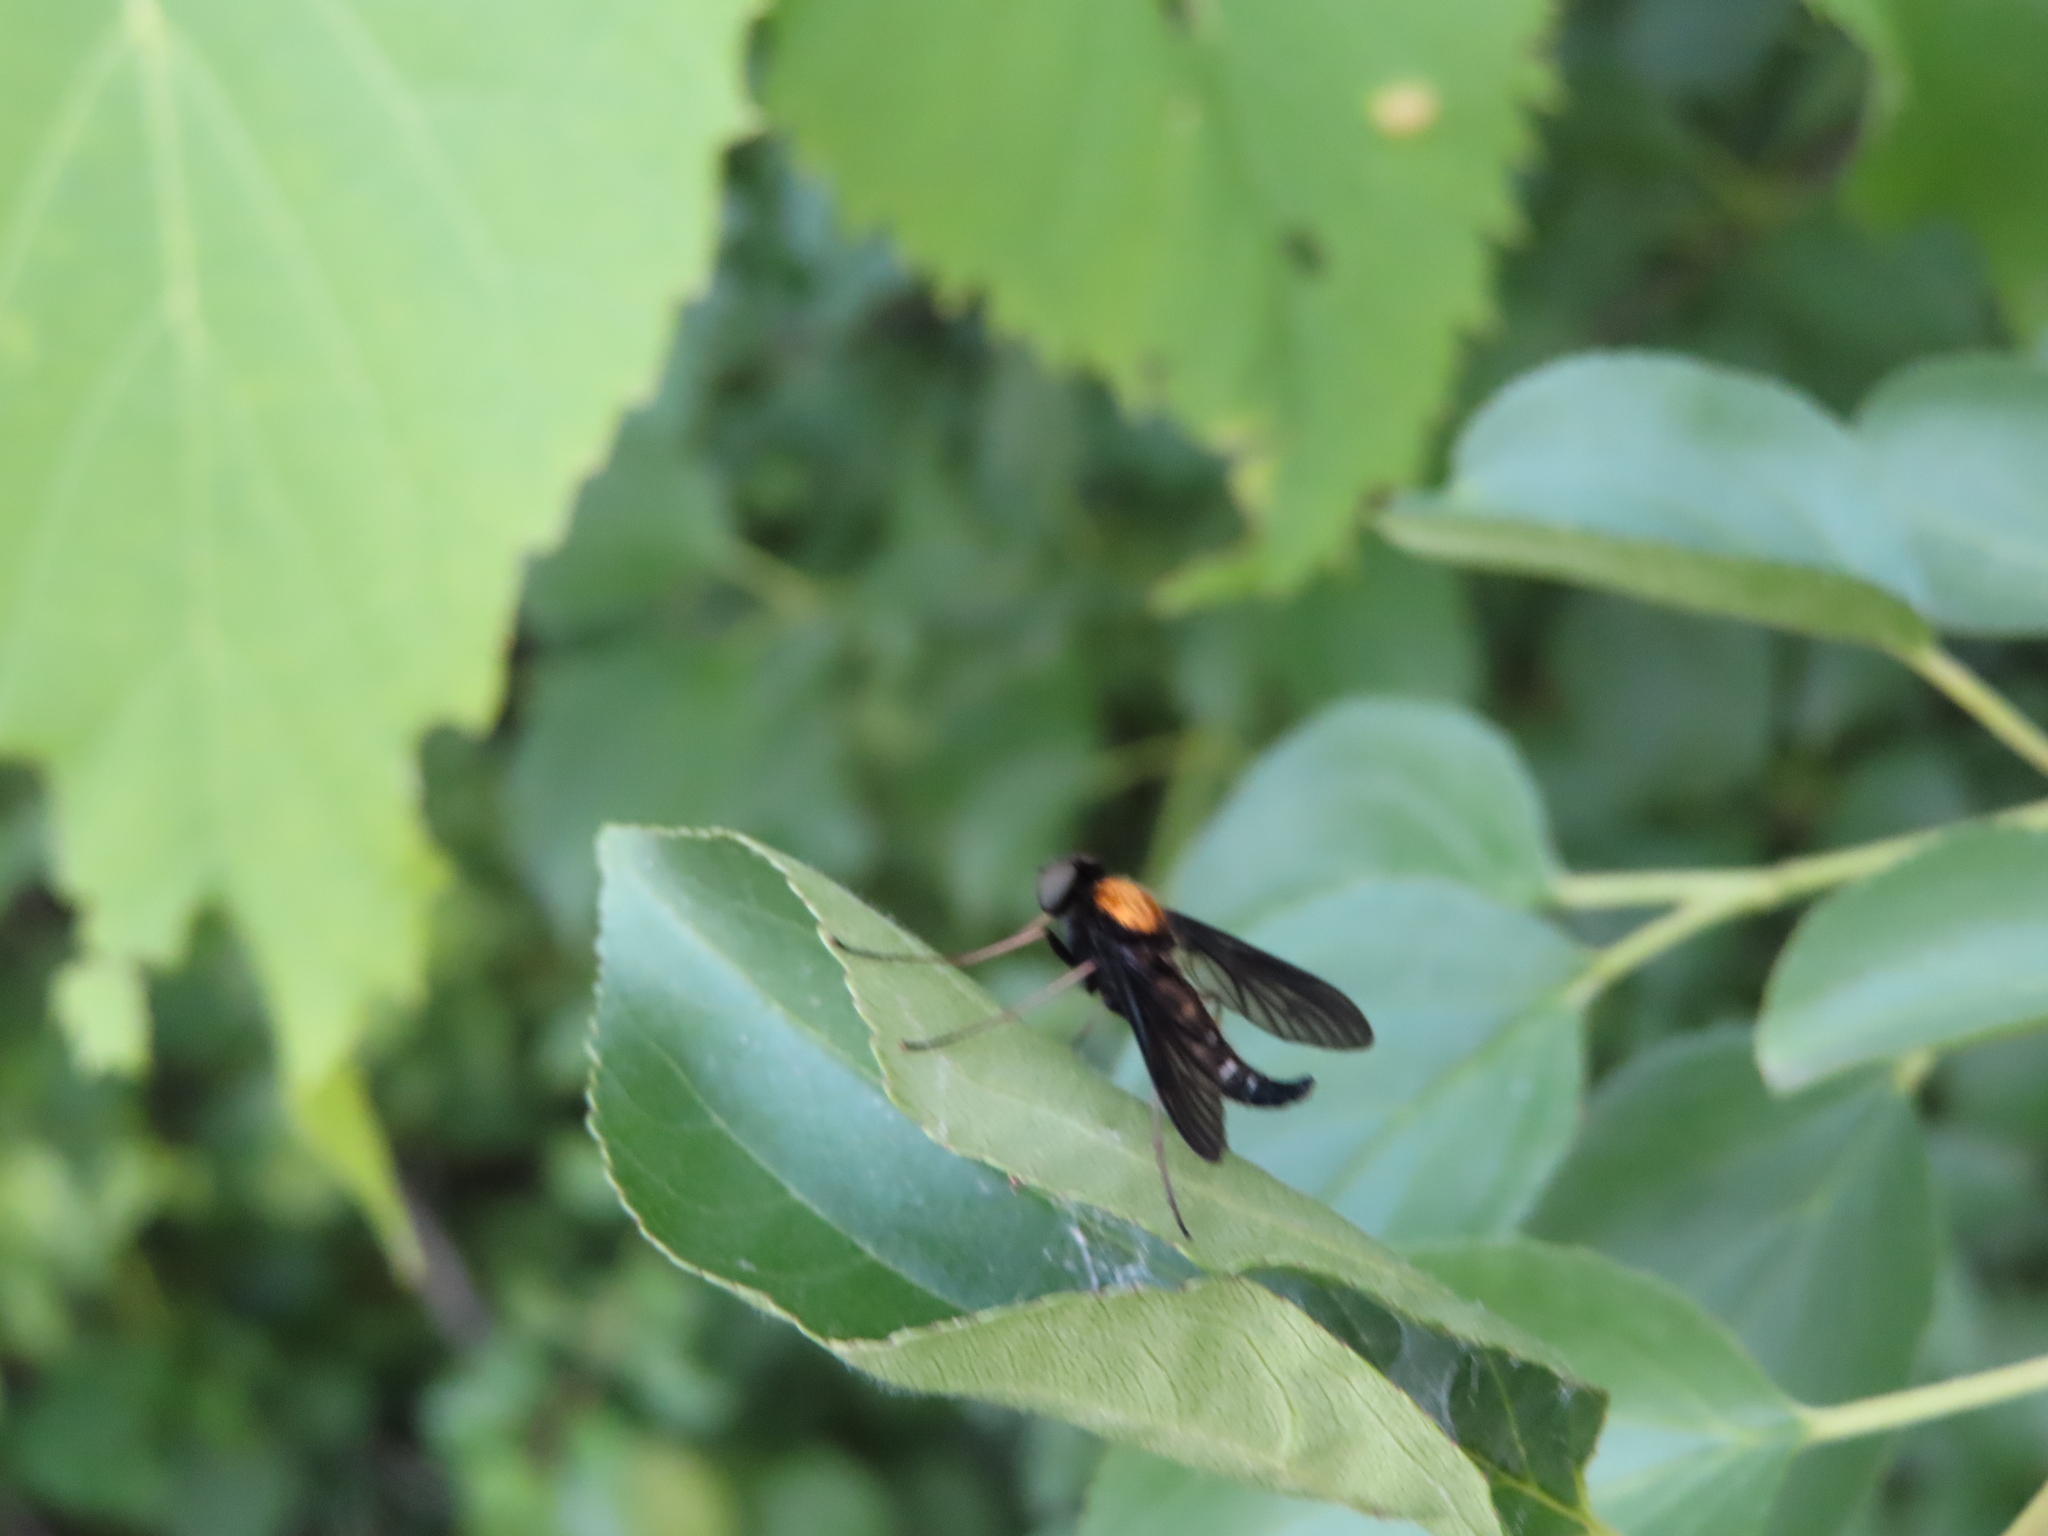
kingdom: Animalia
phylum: Arthropoda
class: Insecta
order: Diptera
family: Rhagionidae
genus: Chrysopilus
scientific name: Chrysopilus thoracicus
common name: Golden-backed snipe fly
